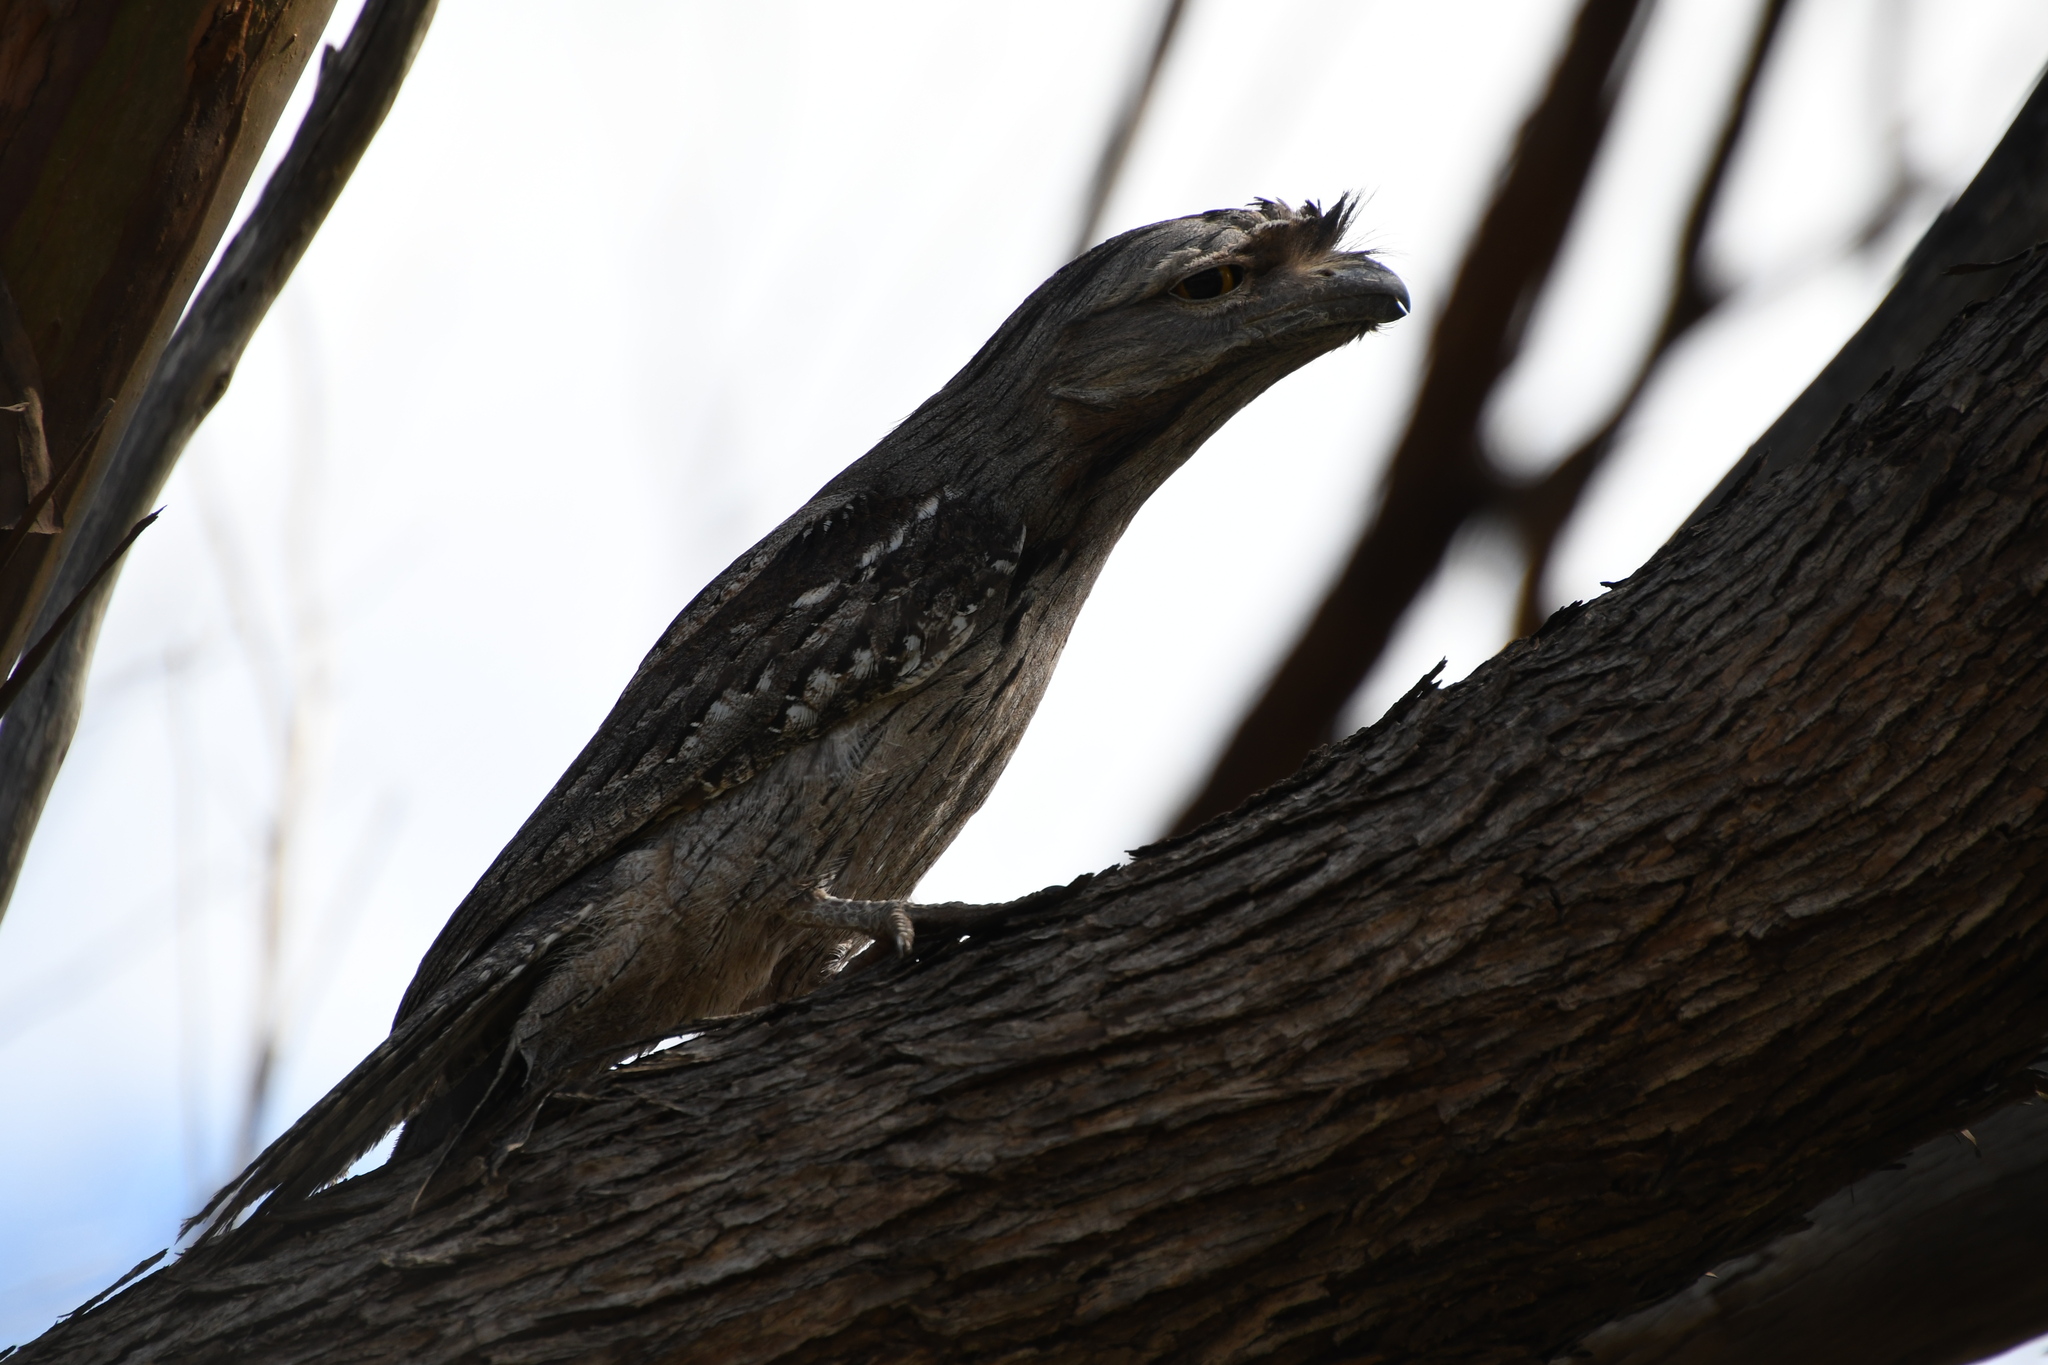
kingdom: Animalia
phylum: Chordata
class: Aves
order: Caprimulgiformes
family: Podargidae
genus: Podargus
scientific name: Podargus strigoides
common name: Tawny frogmouth
